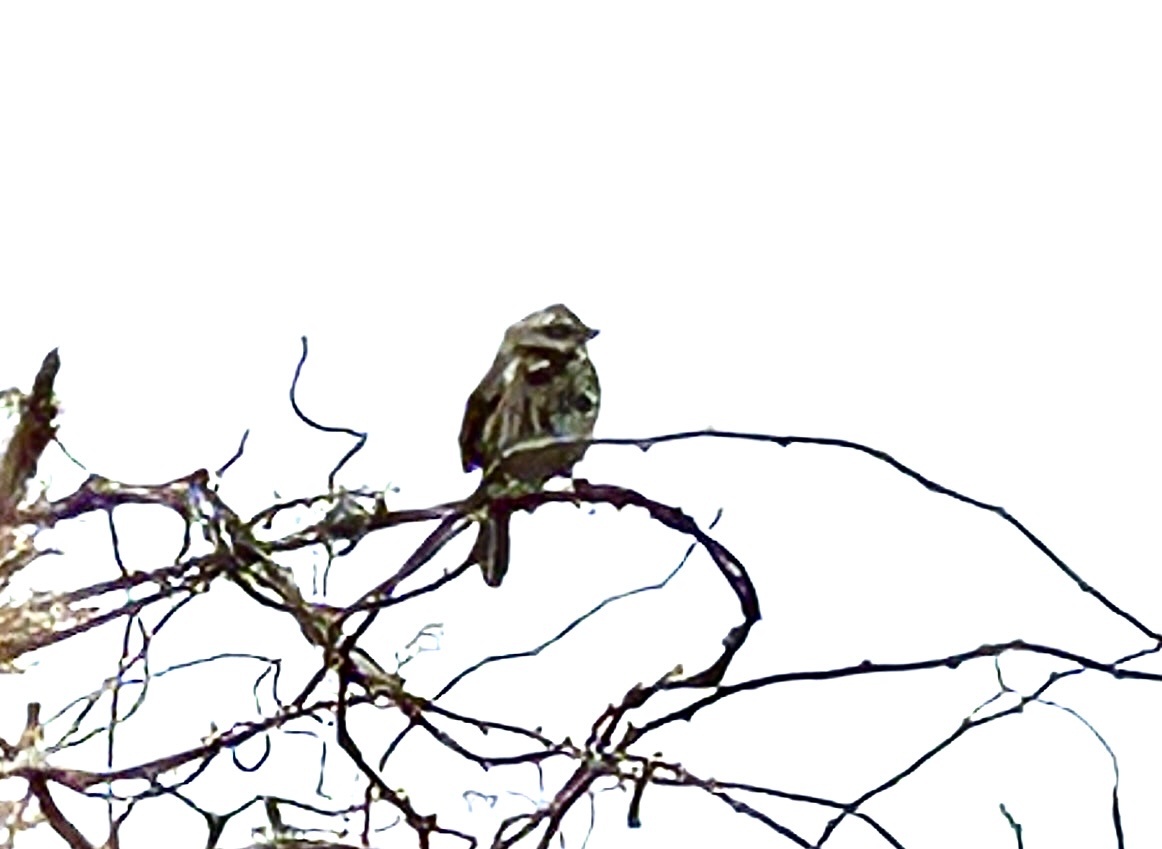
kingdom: Animalia
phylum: Chordata
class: Aves
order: Passeriformes
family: Passerellidae
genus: Melospiza
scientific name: Melospiza melodia
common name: Song sparrow
